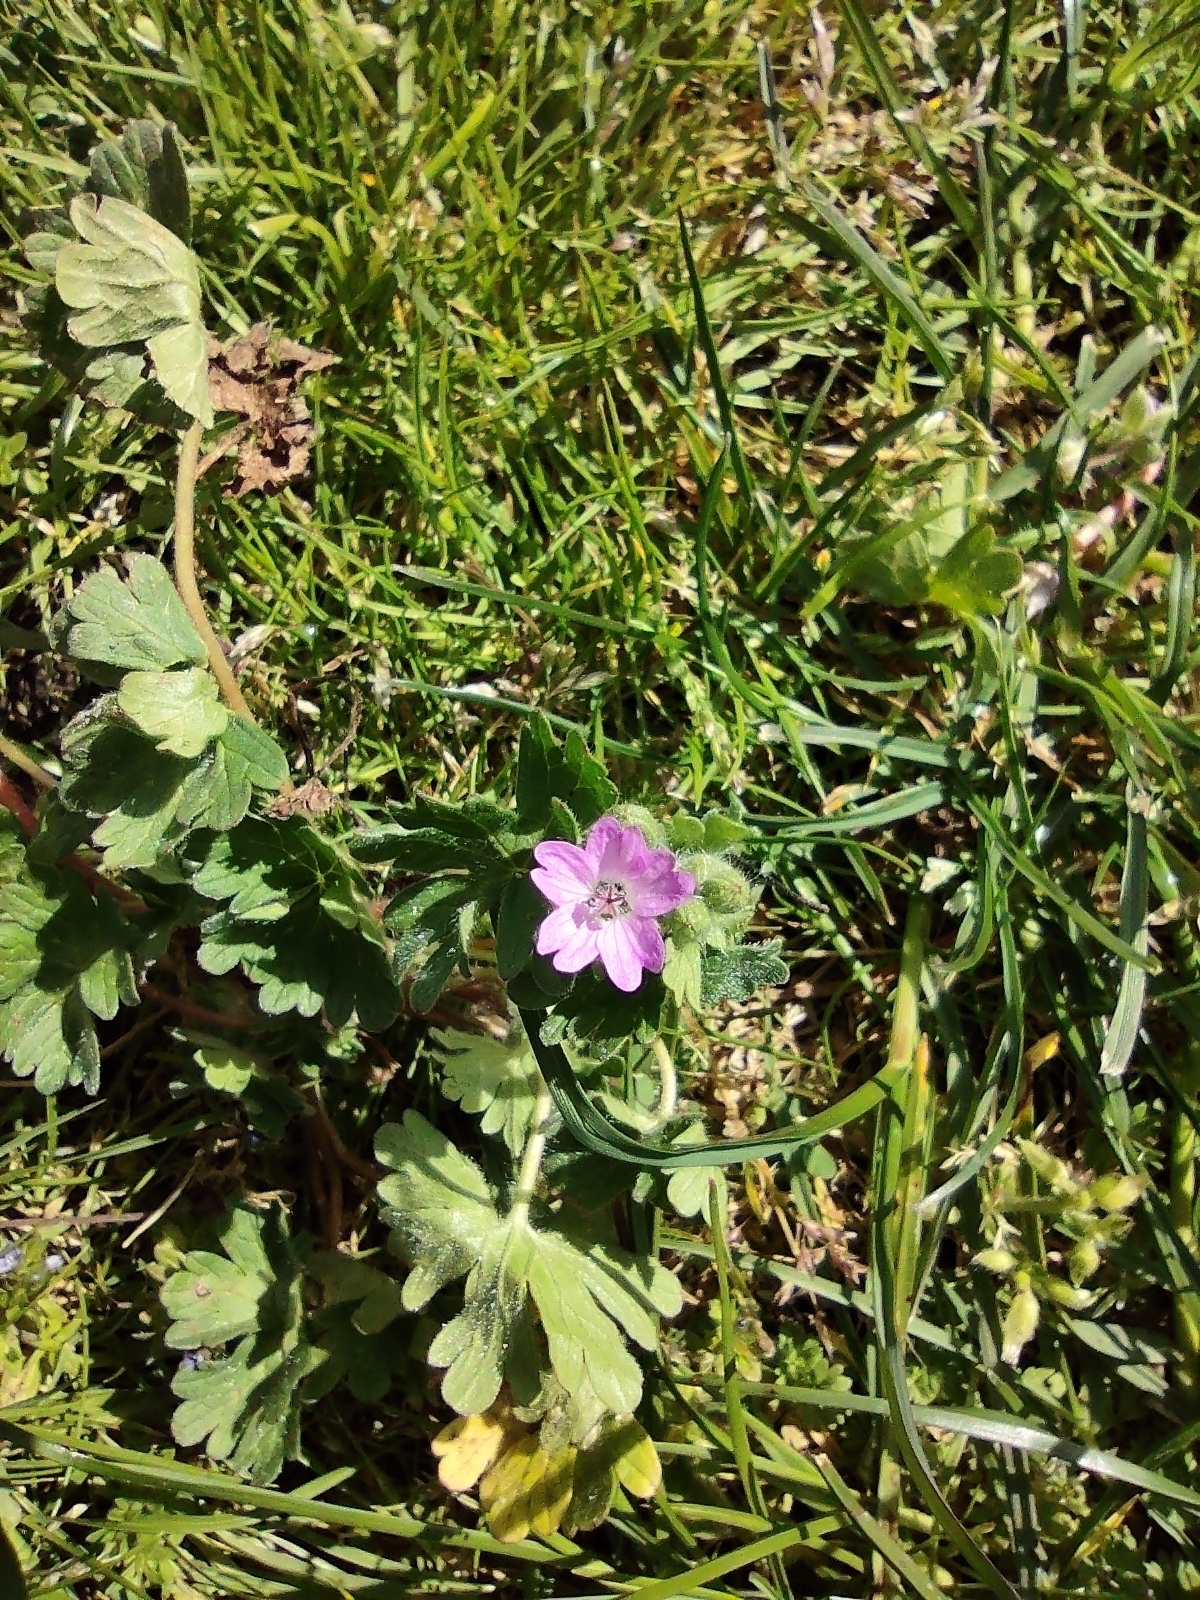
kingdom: Plantae
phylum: Tracheophyta
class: Magnoliopsida
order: Geraniales
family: Geraniaceae
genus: Geranium
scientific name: Geranium molle
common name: Dove's-foot crane's-bill
